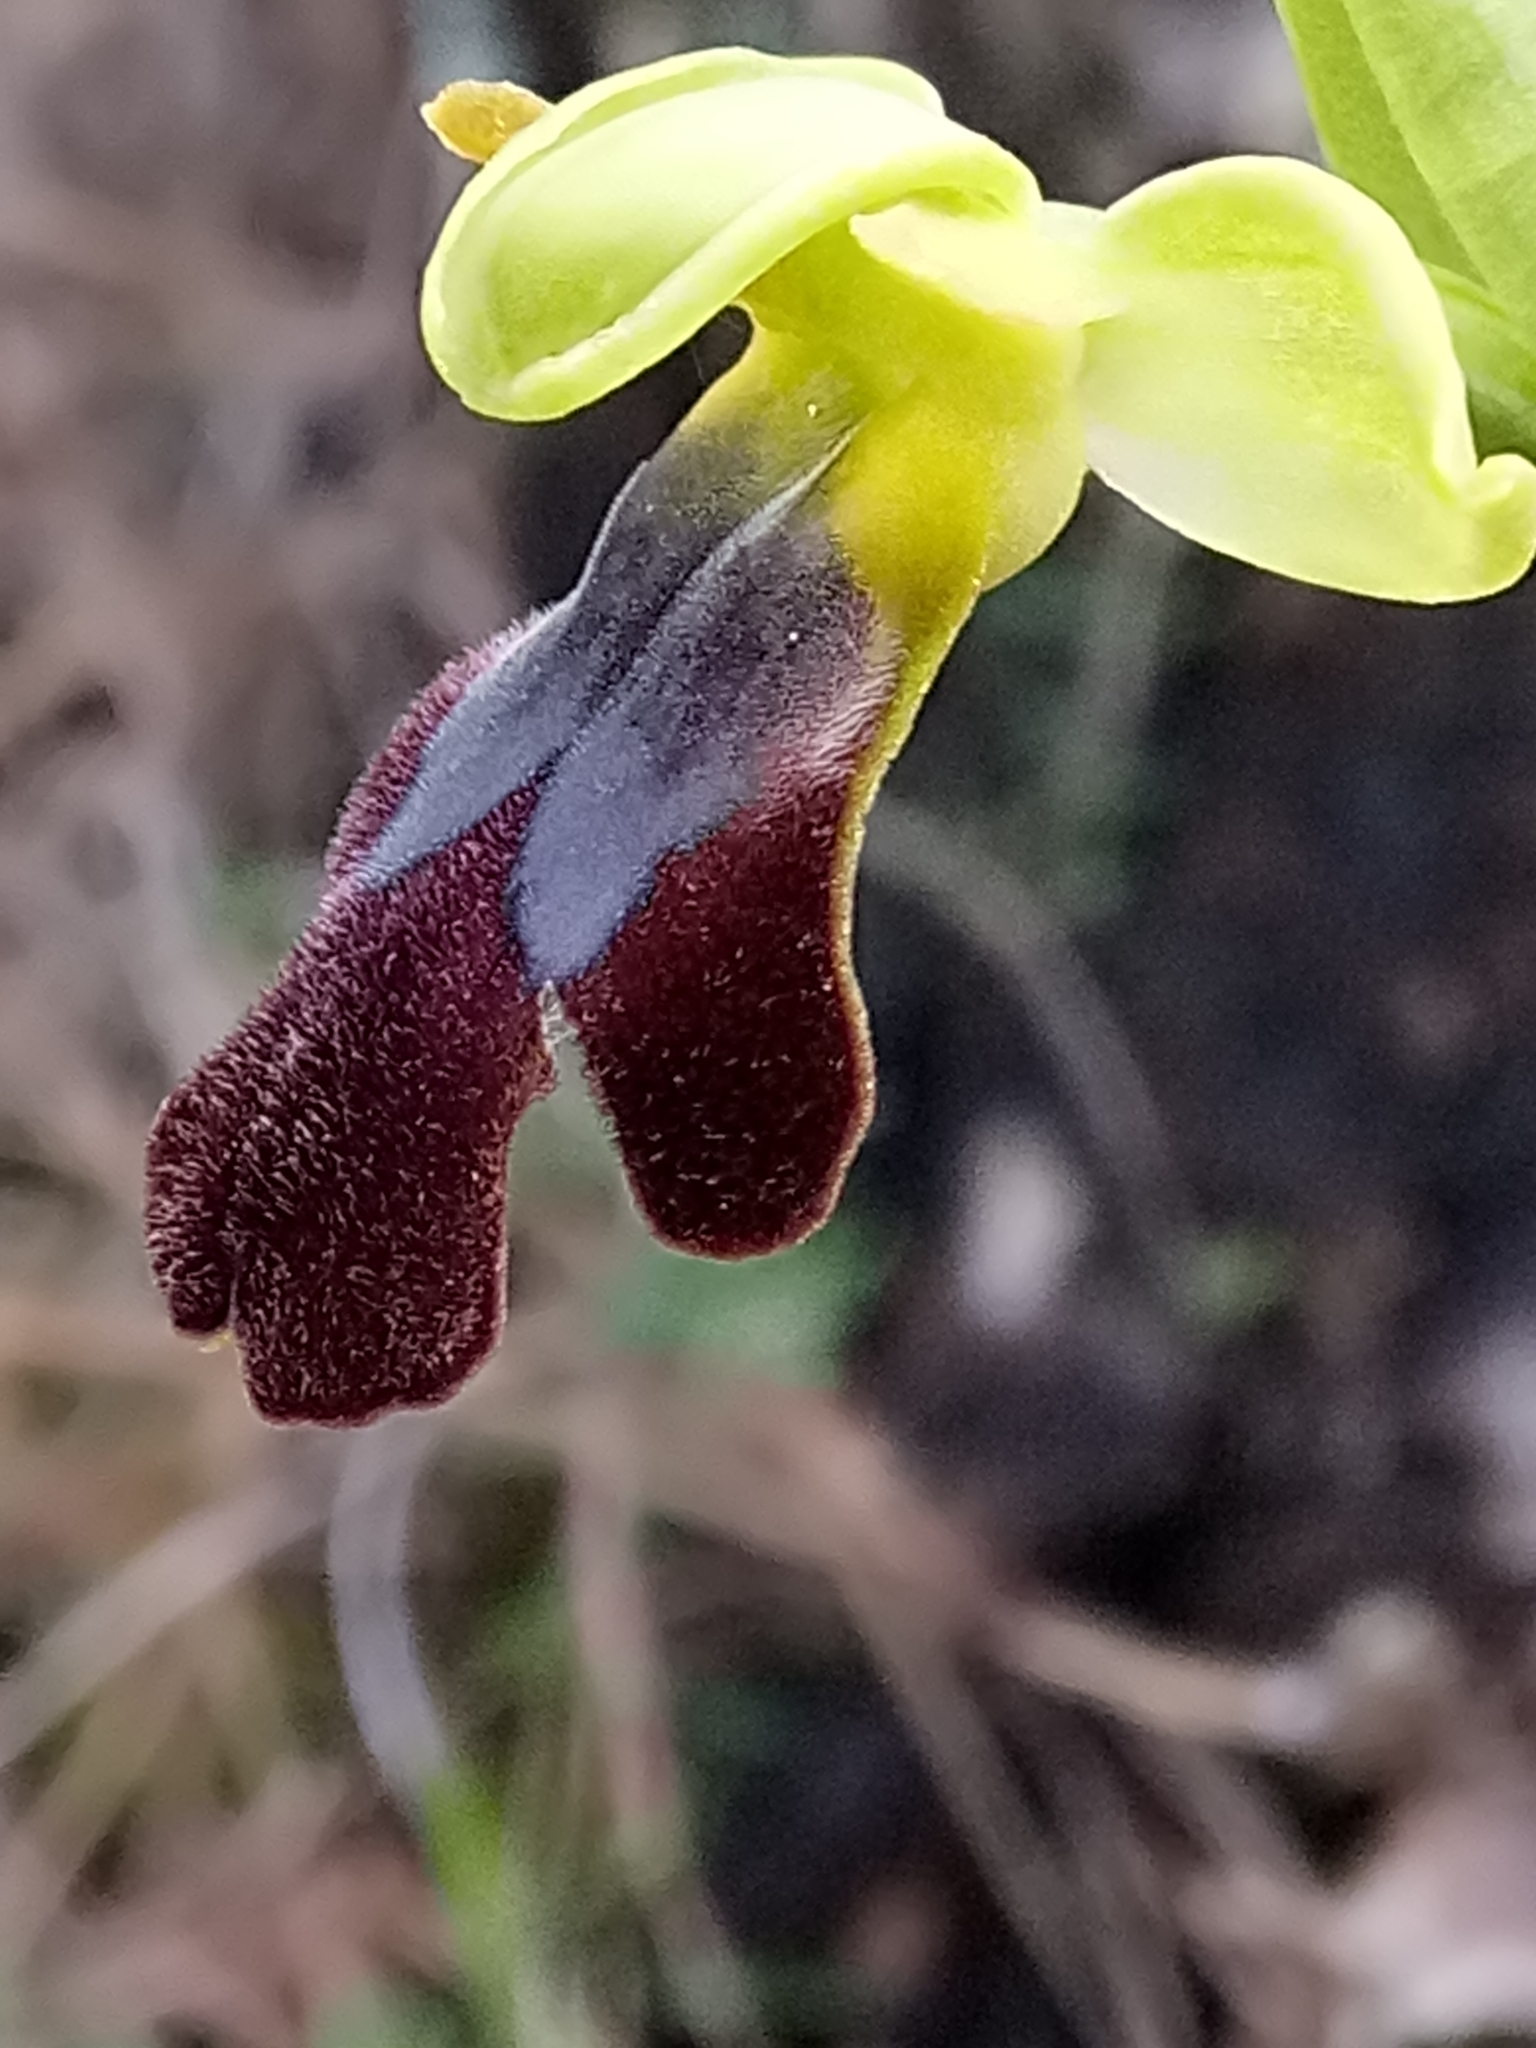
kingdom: Plantae
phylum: Tracheophyta
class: Liliopsida
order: Asparagales
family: Orchidaceae
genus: Ophrys
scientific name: Ophrys fusca
